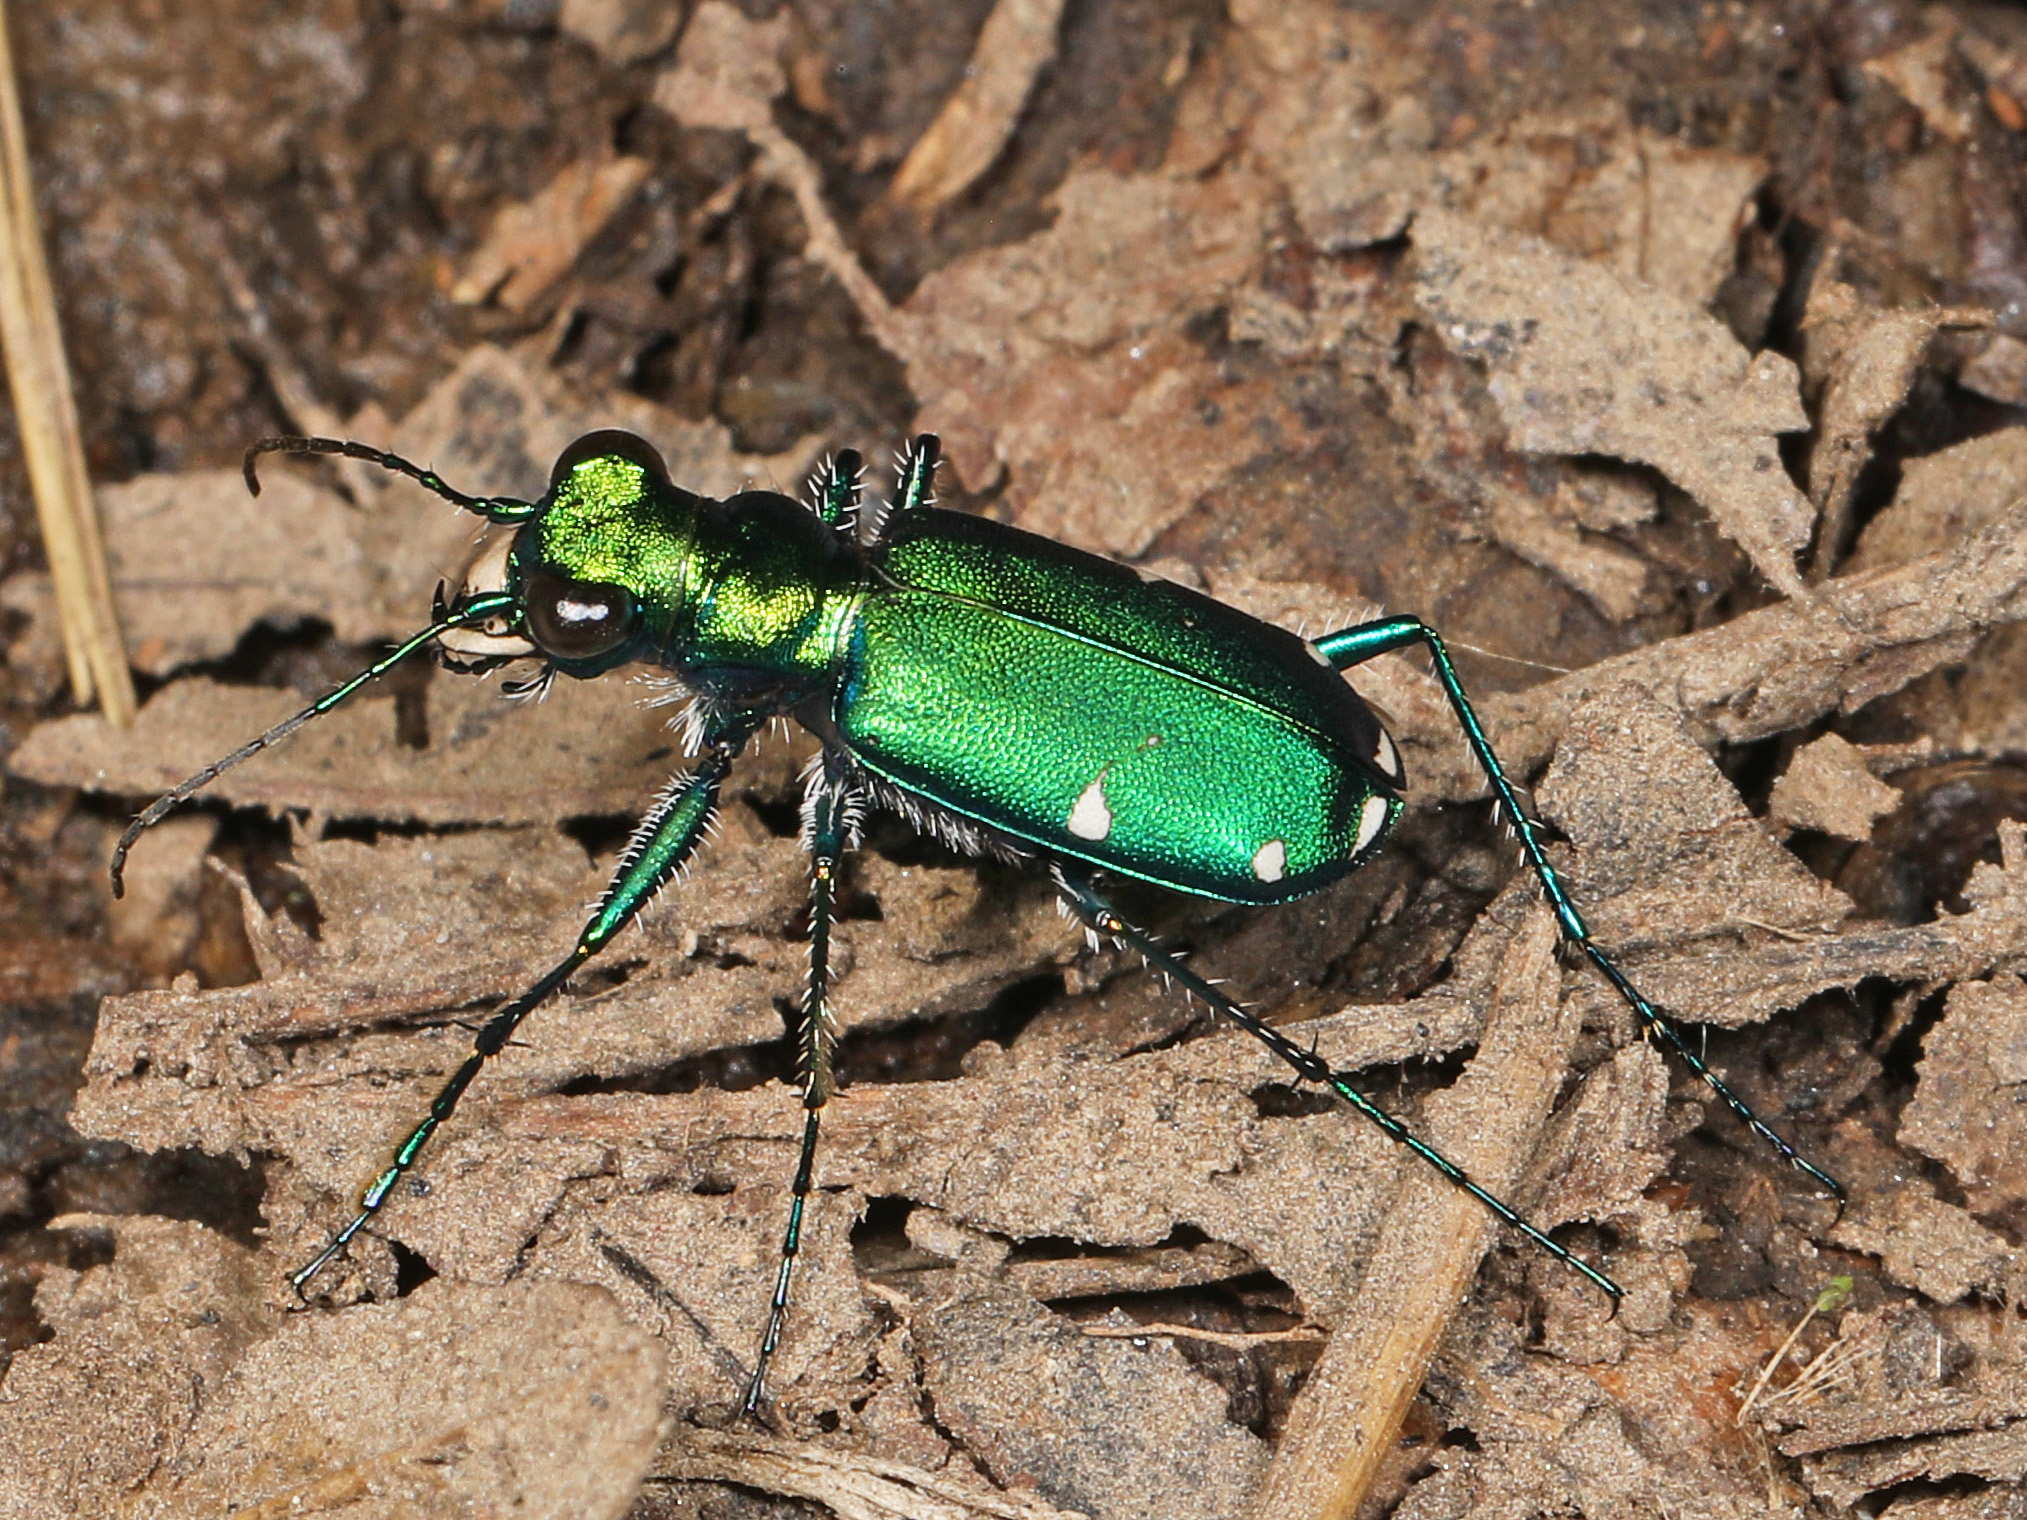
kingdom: Animalia
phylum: Arthropoda
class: Insecta
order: Coleoptera
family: Carabidae
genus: Cicindela
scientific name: Cicindela sexguttata
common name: Six-spotted tiger beetle
